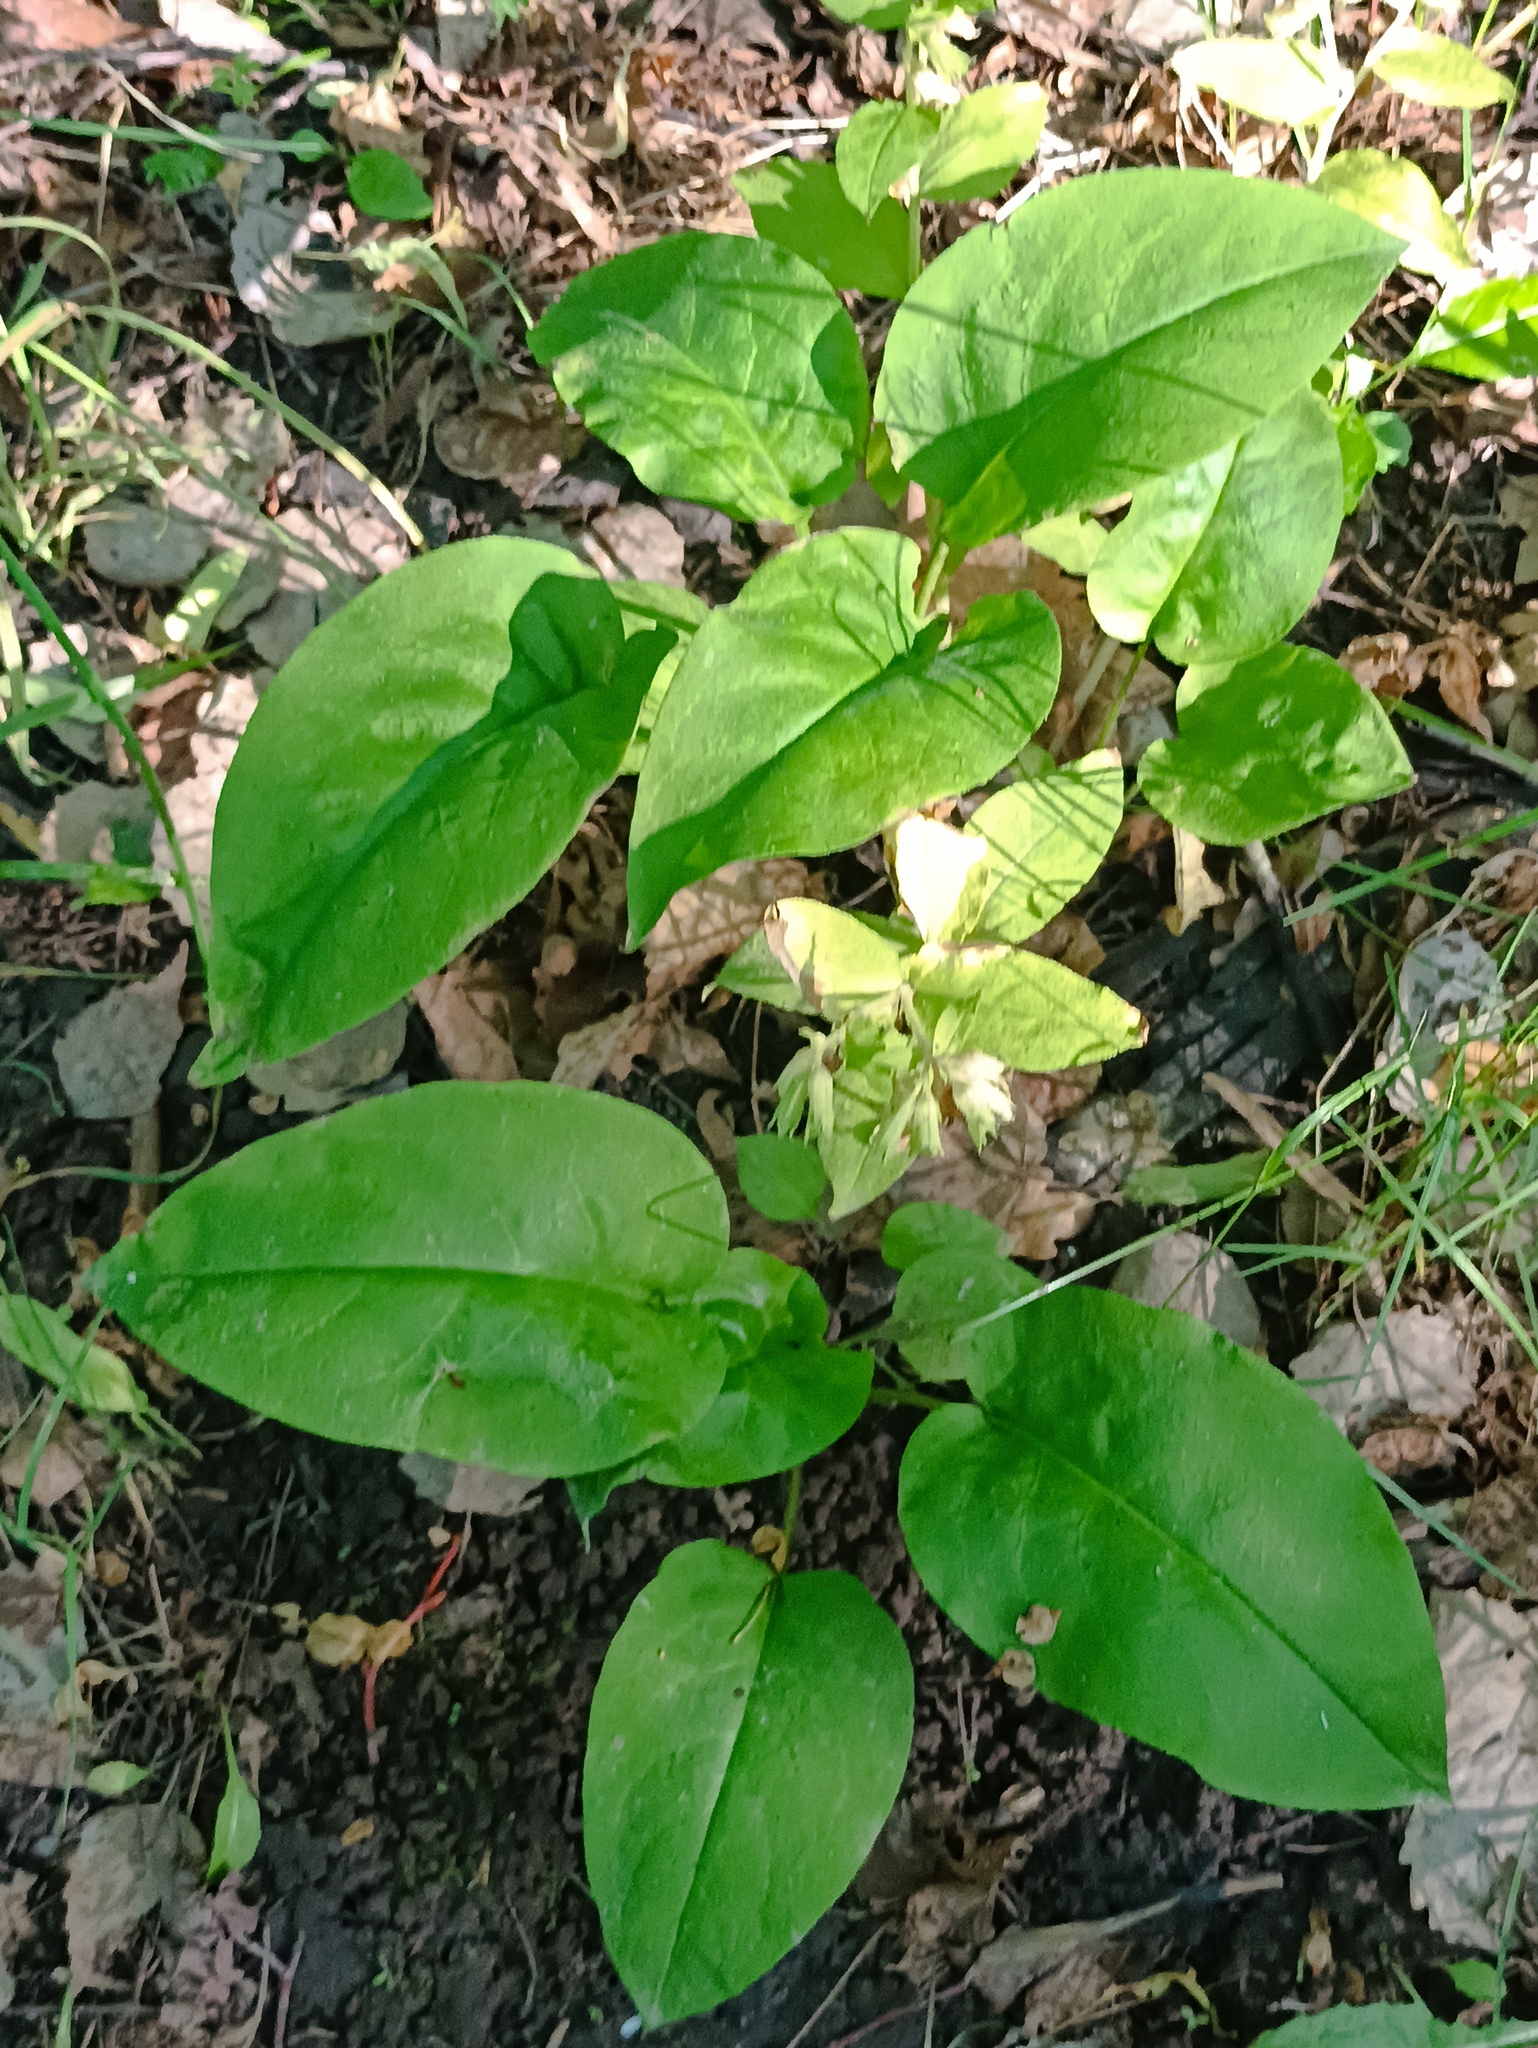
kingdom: Plantae
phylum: Tracheophyta
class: Magnoliopsida
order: Boraginales
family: Boraginaceae
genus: Pulmonaria
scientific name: Pulmonaria obscura
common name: Suffolk lungwort
